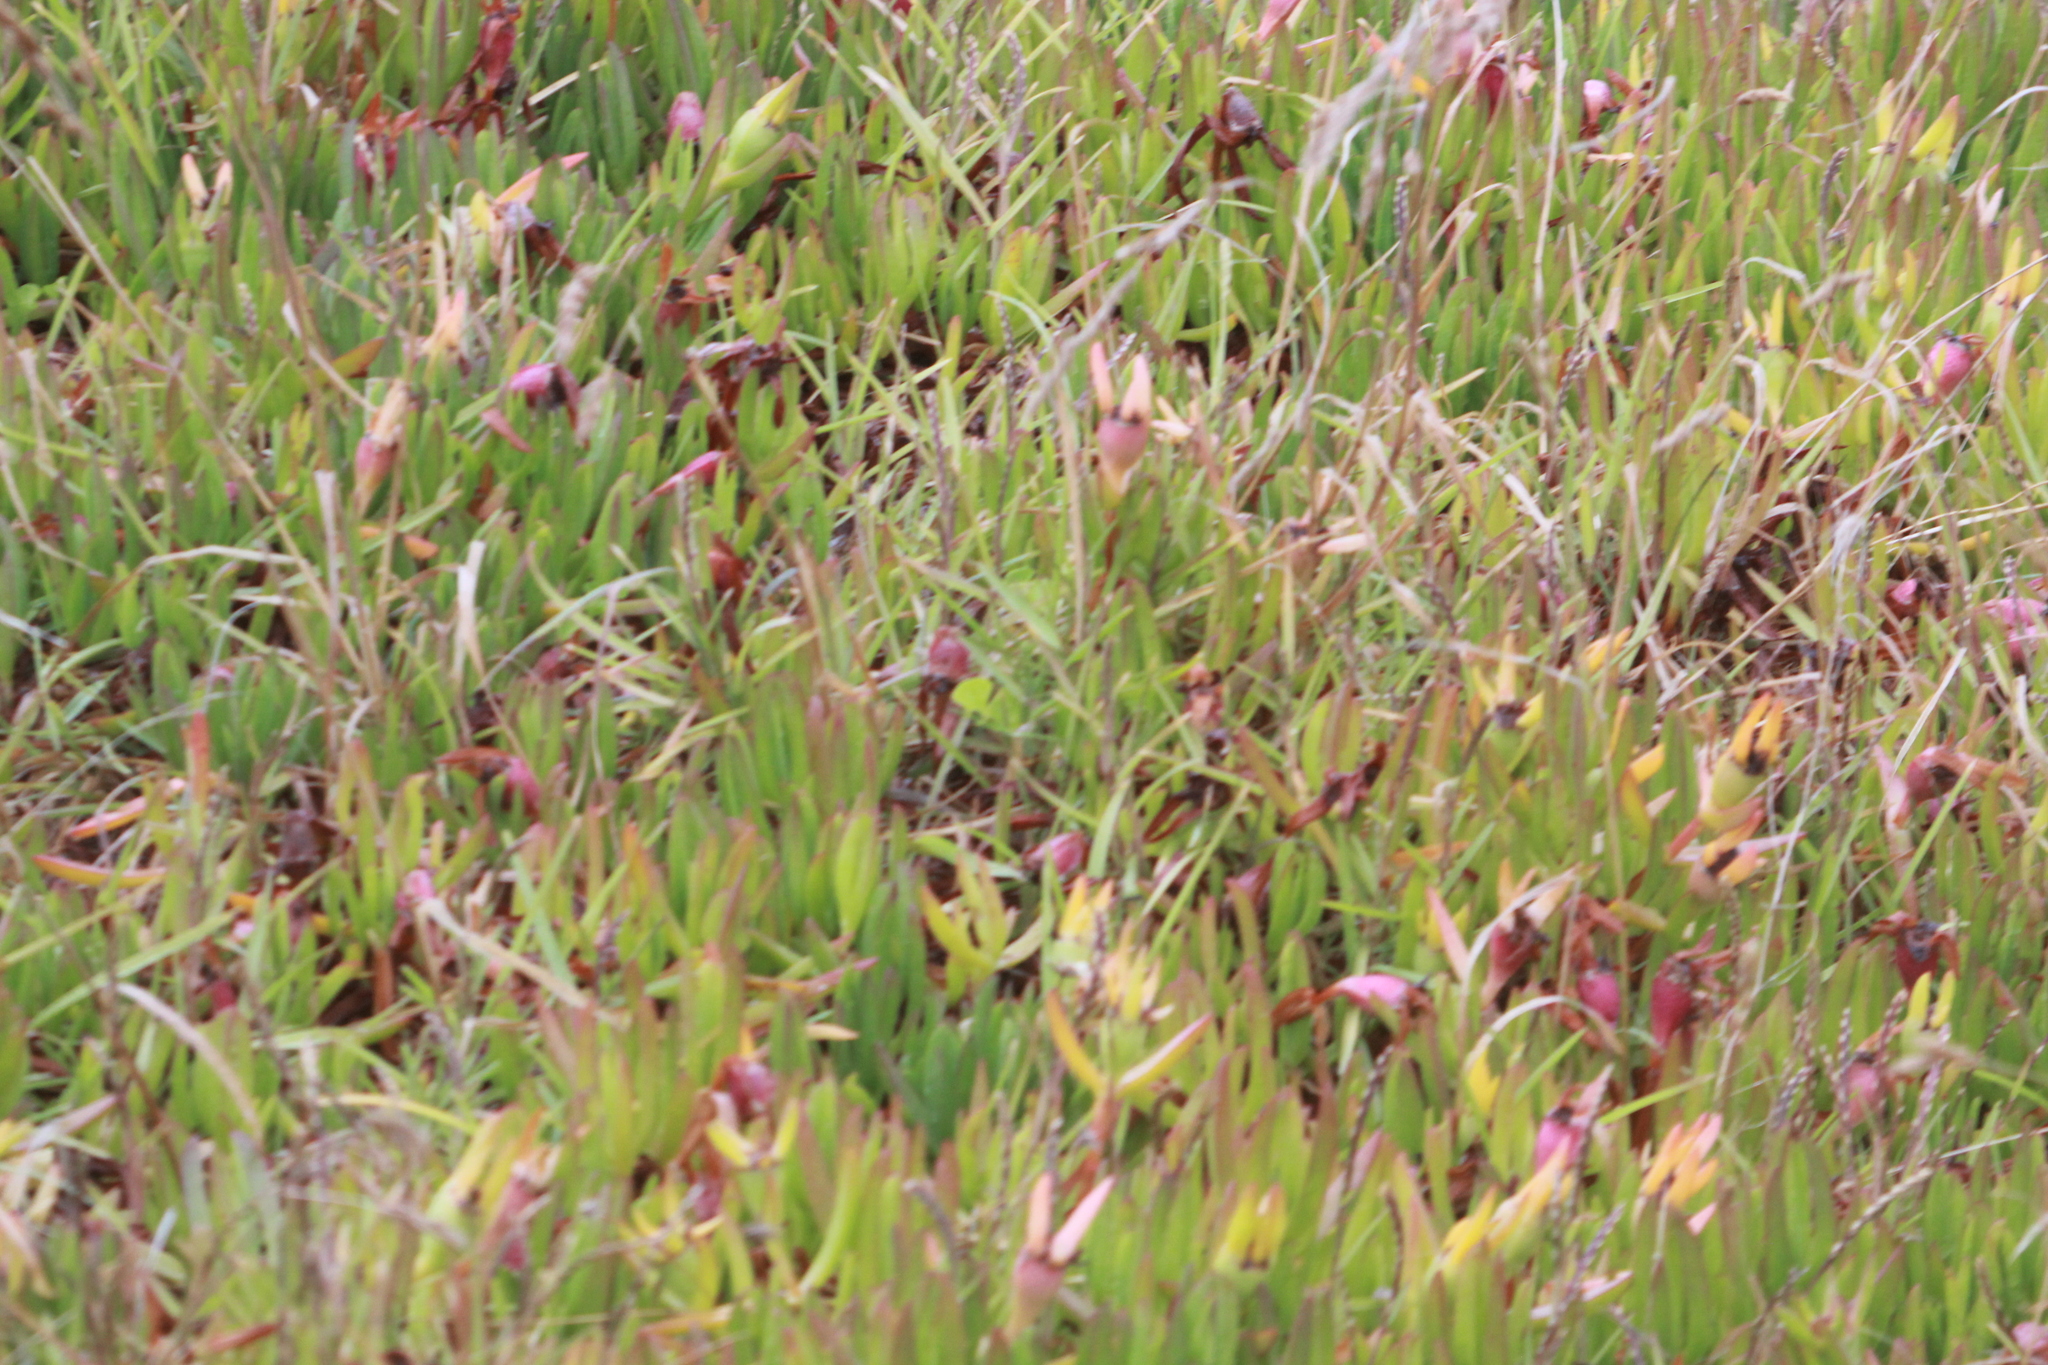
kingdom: Plantae
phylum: Tracheophyta
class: Magnoliopsida
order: Caryophyllales
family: Aizoaceae
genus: Carpobrotus
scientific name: Carpobrotus edulis
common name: Hottentot-fig
